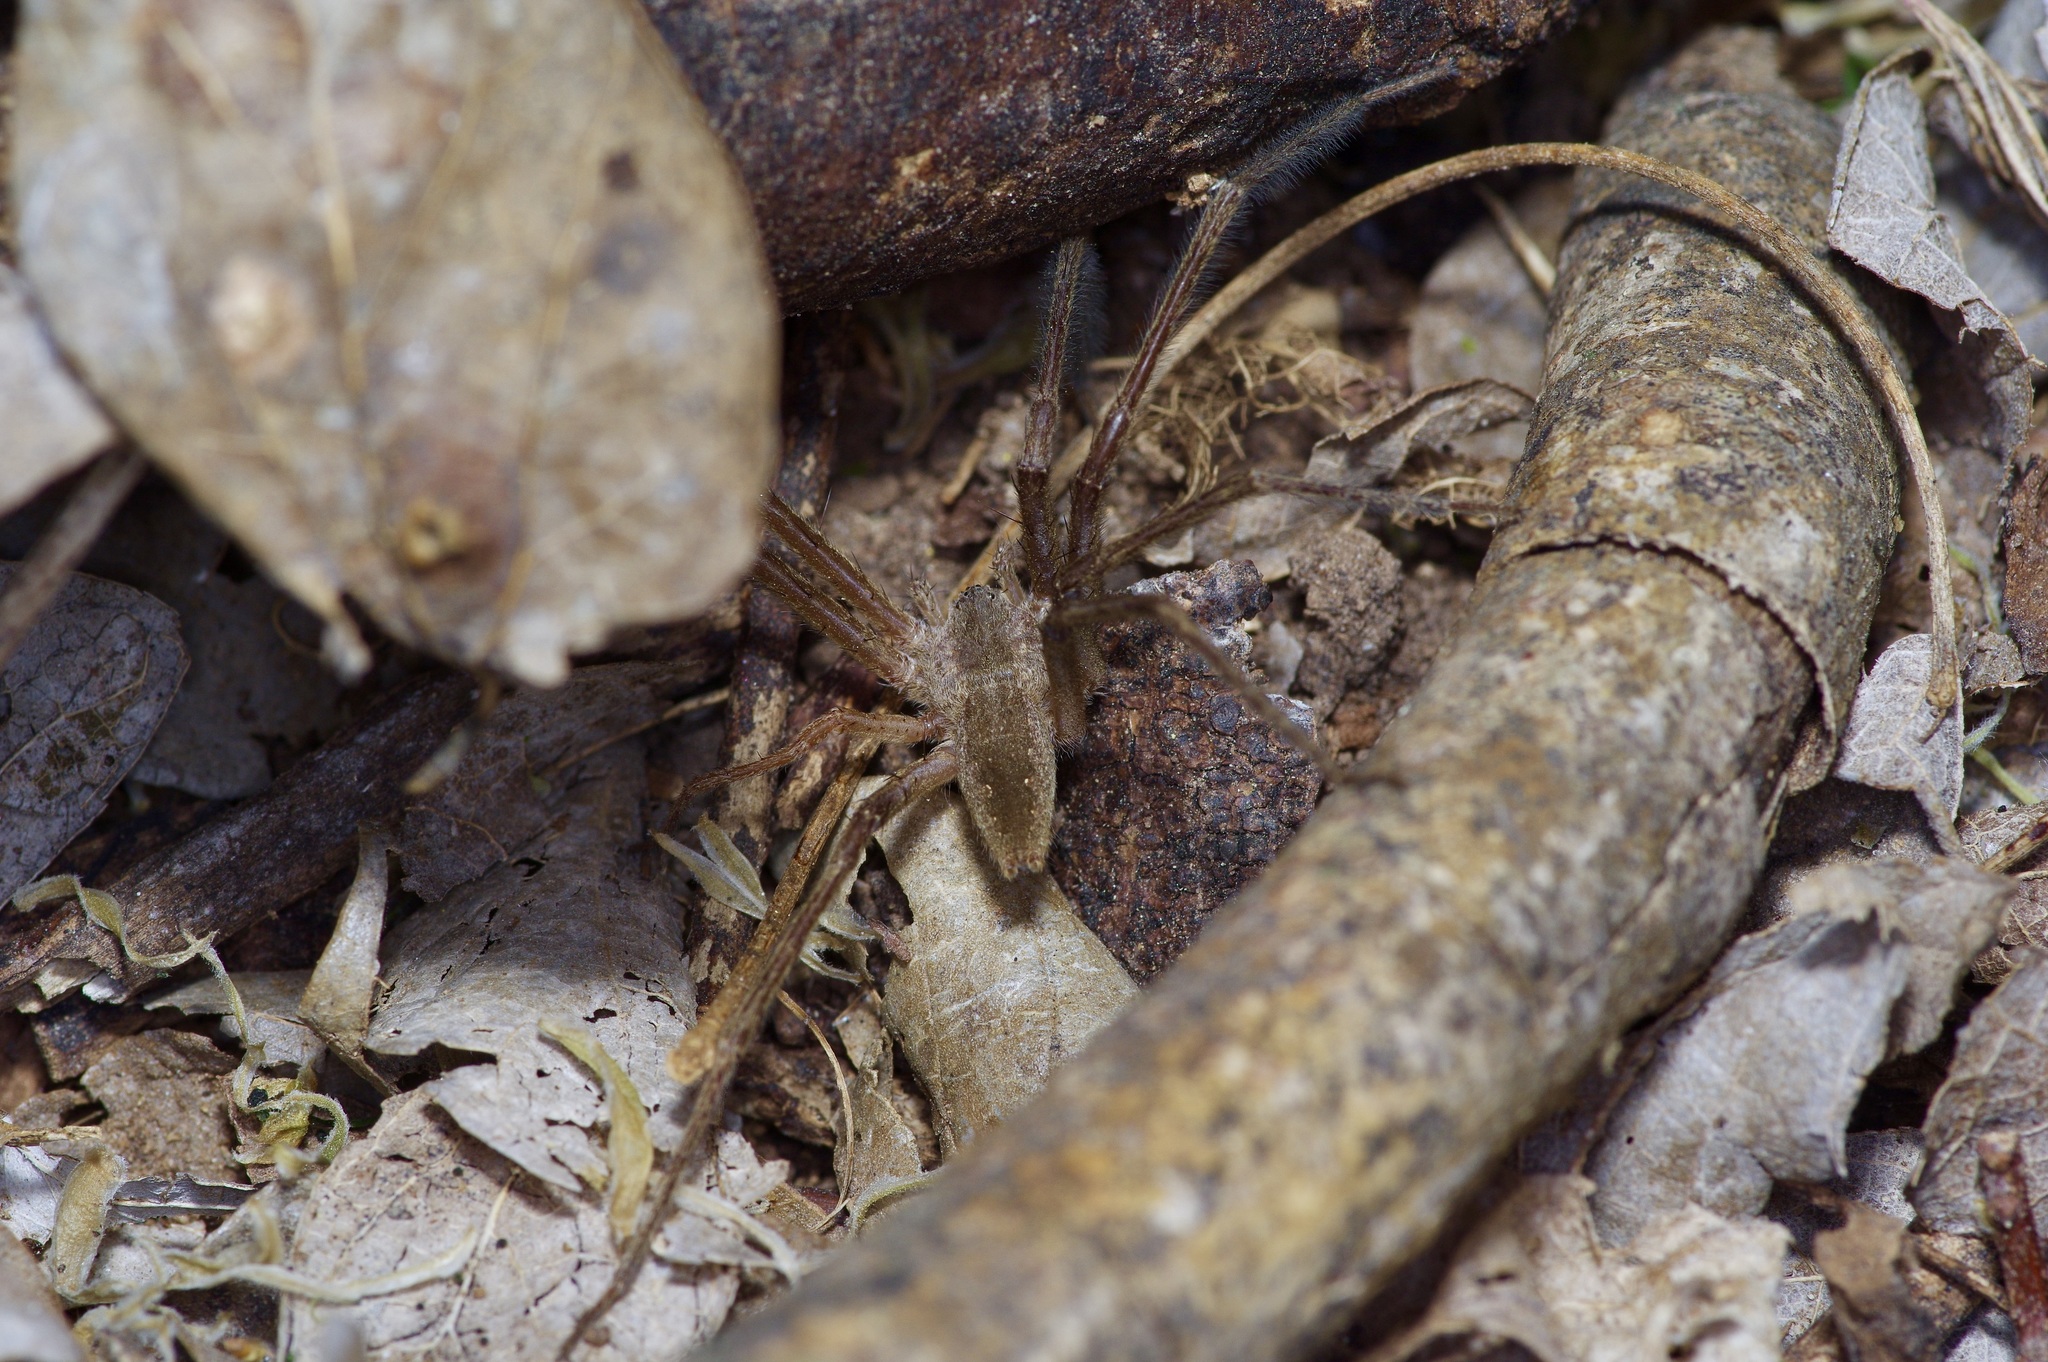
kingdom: Animalia
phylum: Arthropoda
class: Arachnida
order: Araneae
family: Pisauridae
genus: Pisaurina
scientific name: Pisaurina mira
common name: American nursery web spider
